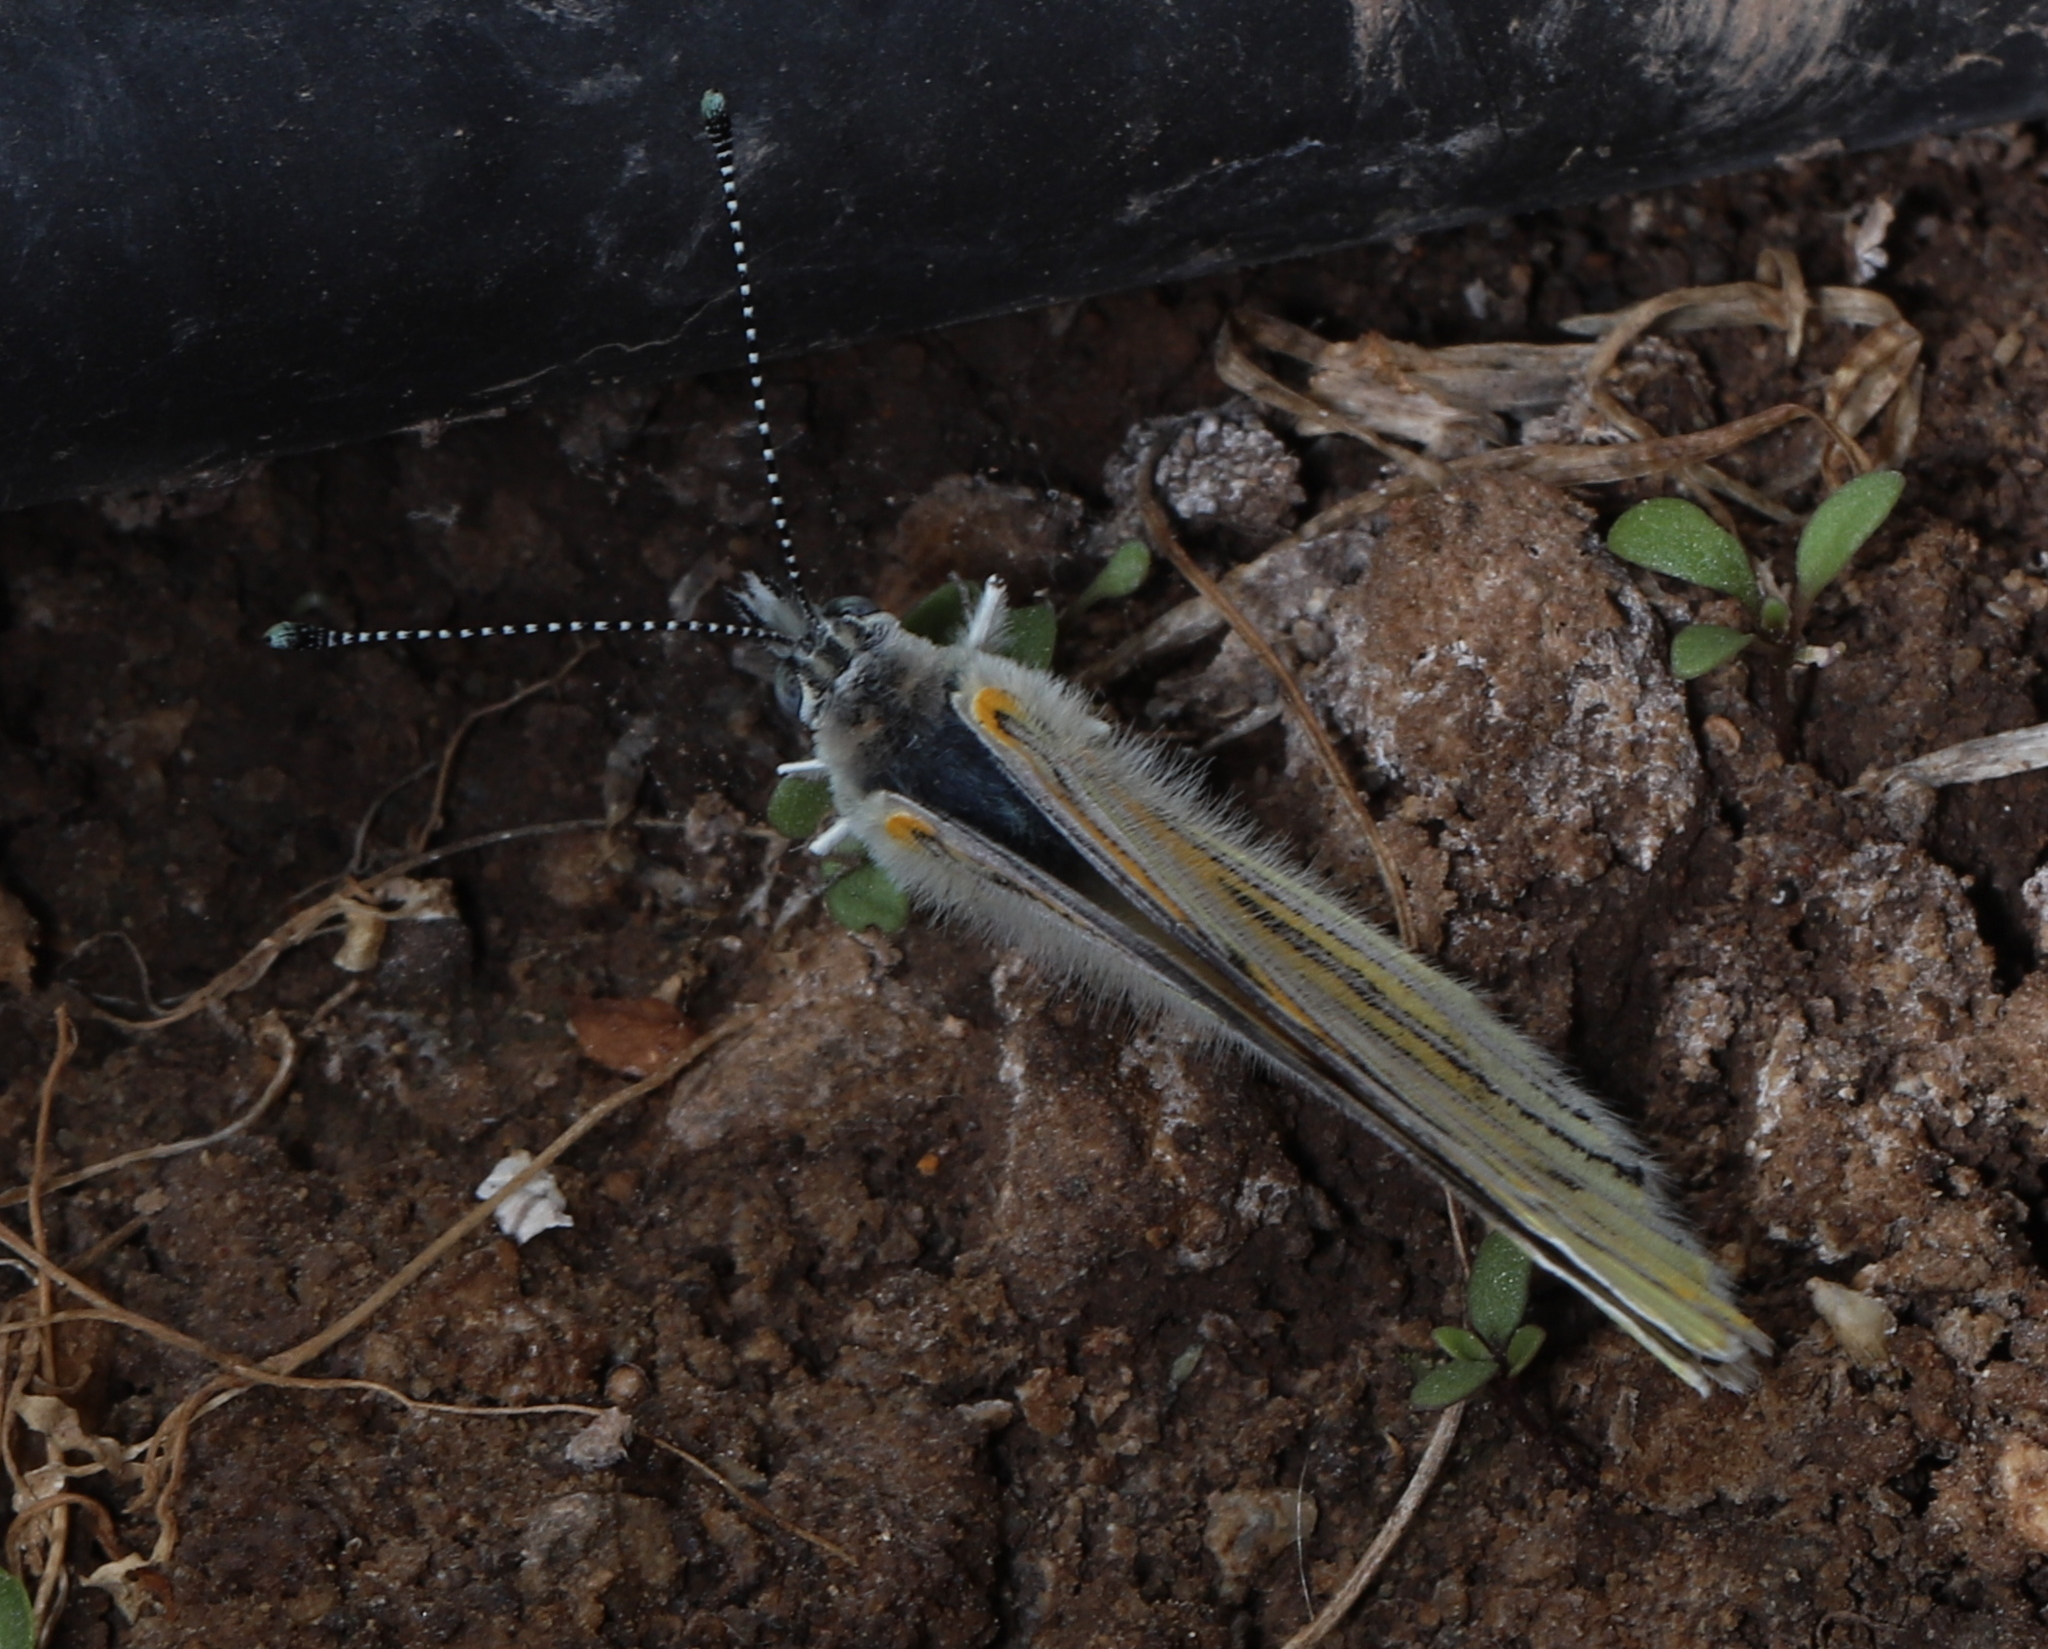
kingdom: Animalia
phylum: Arthropoda
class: Insecta
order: Lepidoptera
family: Pieridae
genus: Tatochila
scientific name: Tatochila mercedis
